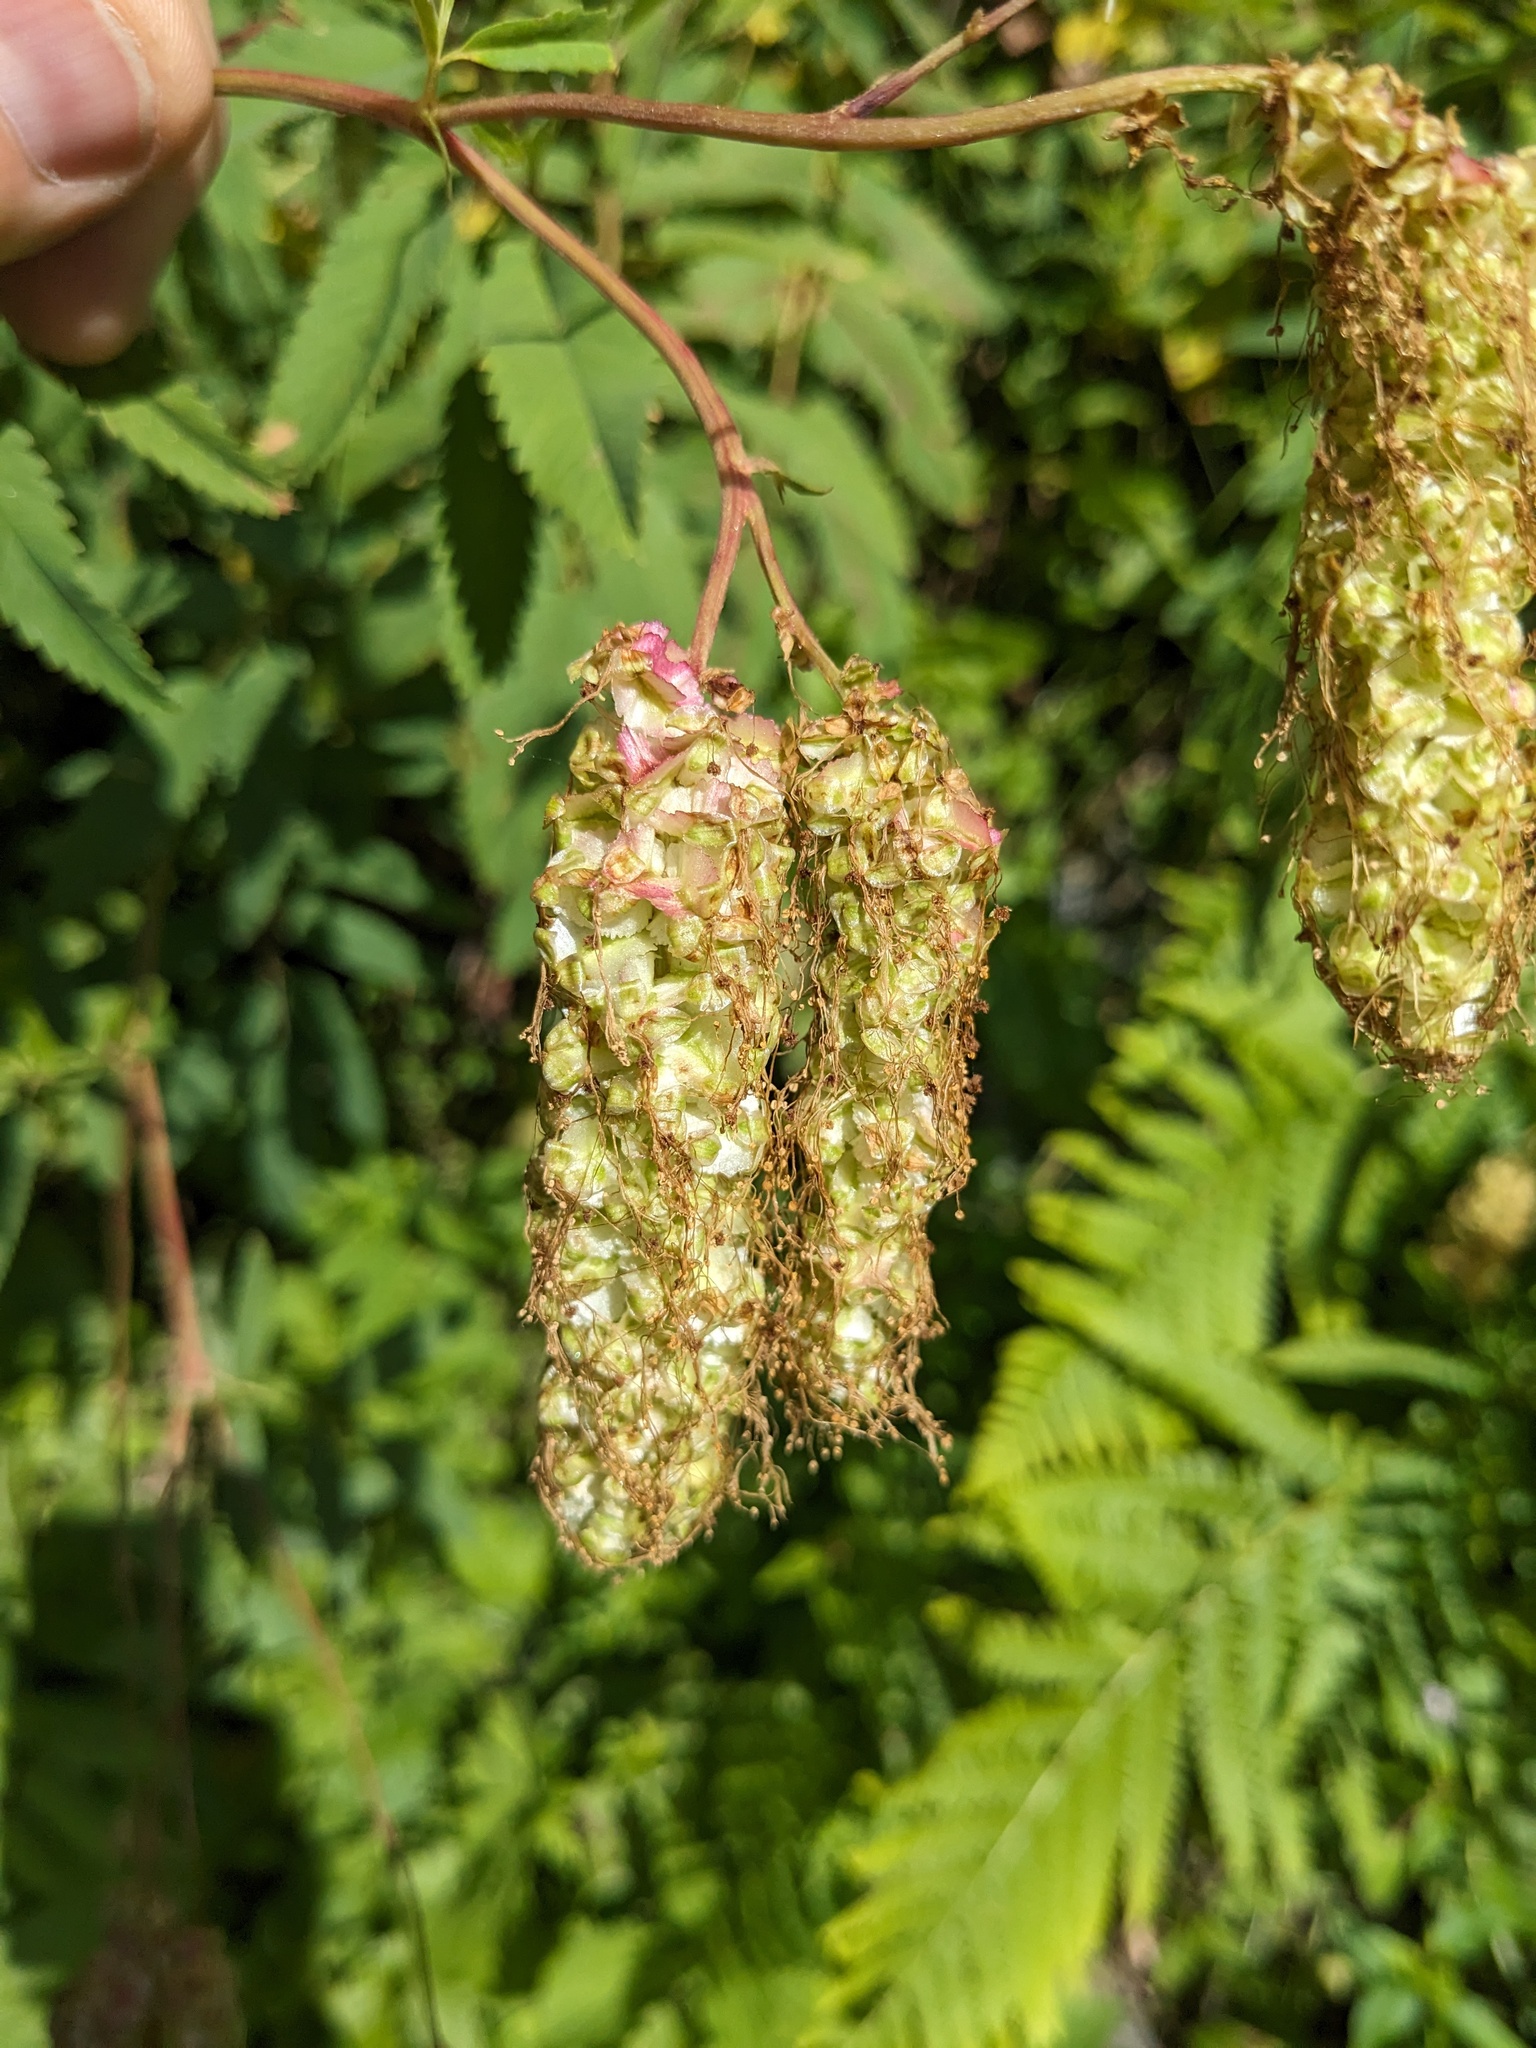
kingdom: Plantae
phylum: Tracheophyta
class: Magnoliopsida
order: Rosales
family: Rosaceae
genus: Poterium
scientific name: Poterium dodecandrum
